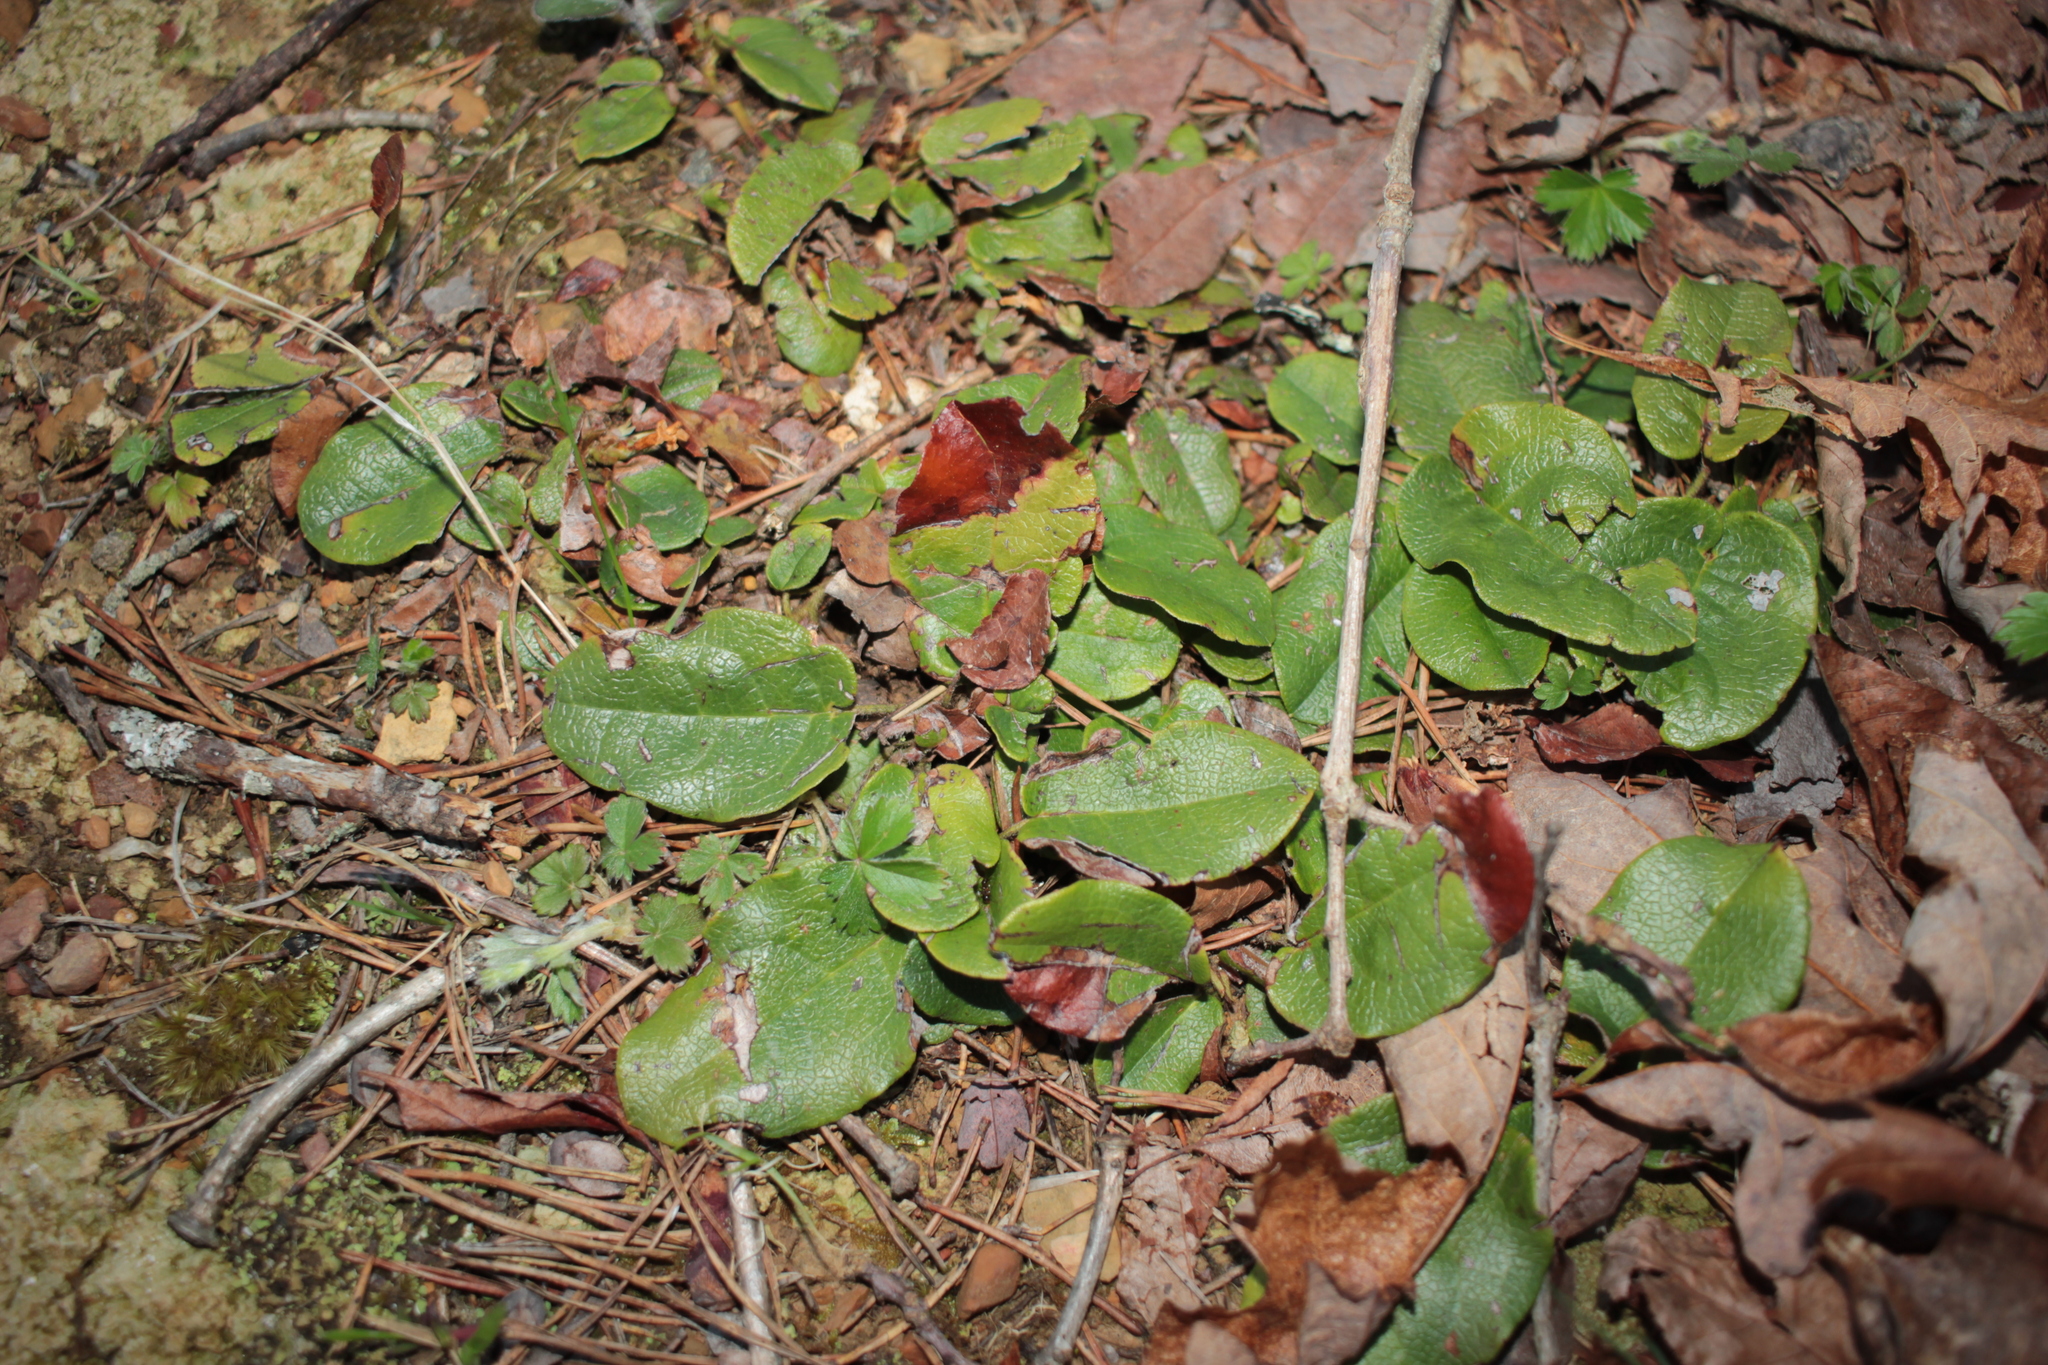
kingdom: Plantae
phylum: Tracheophyta
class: Magnoliopsida
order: Ericales
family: Ericaceae
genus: Epigaea
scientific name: Epigaea repens
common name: Gravelroot
